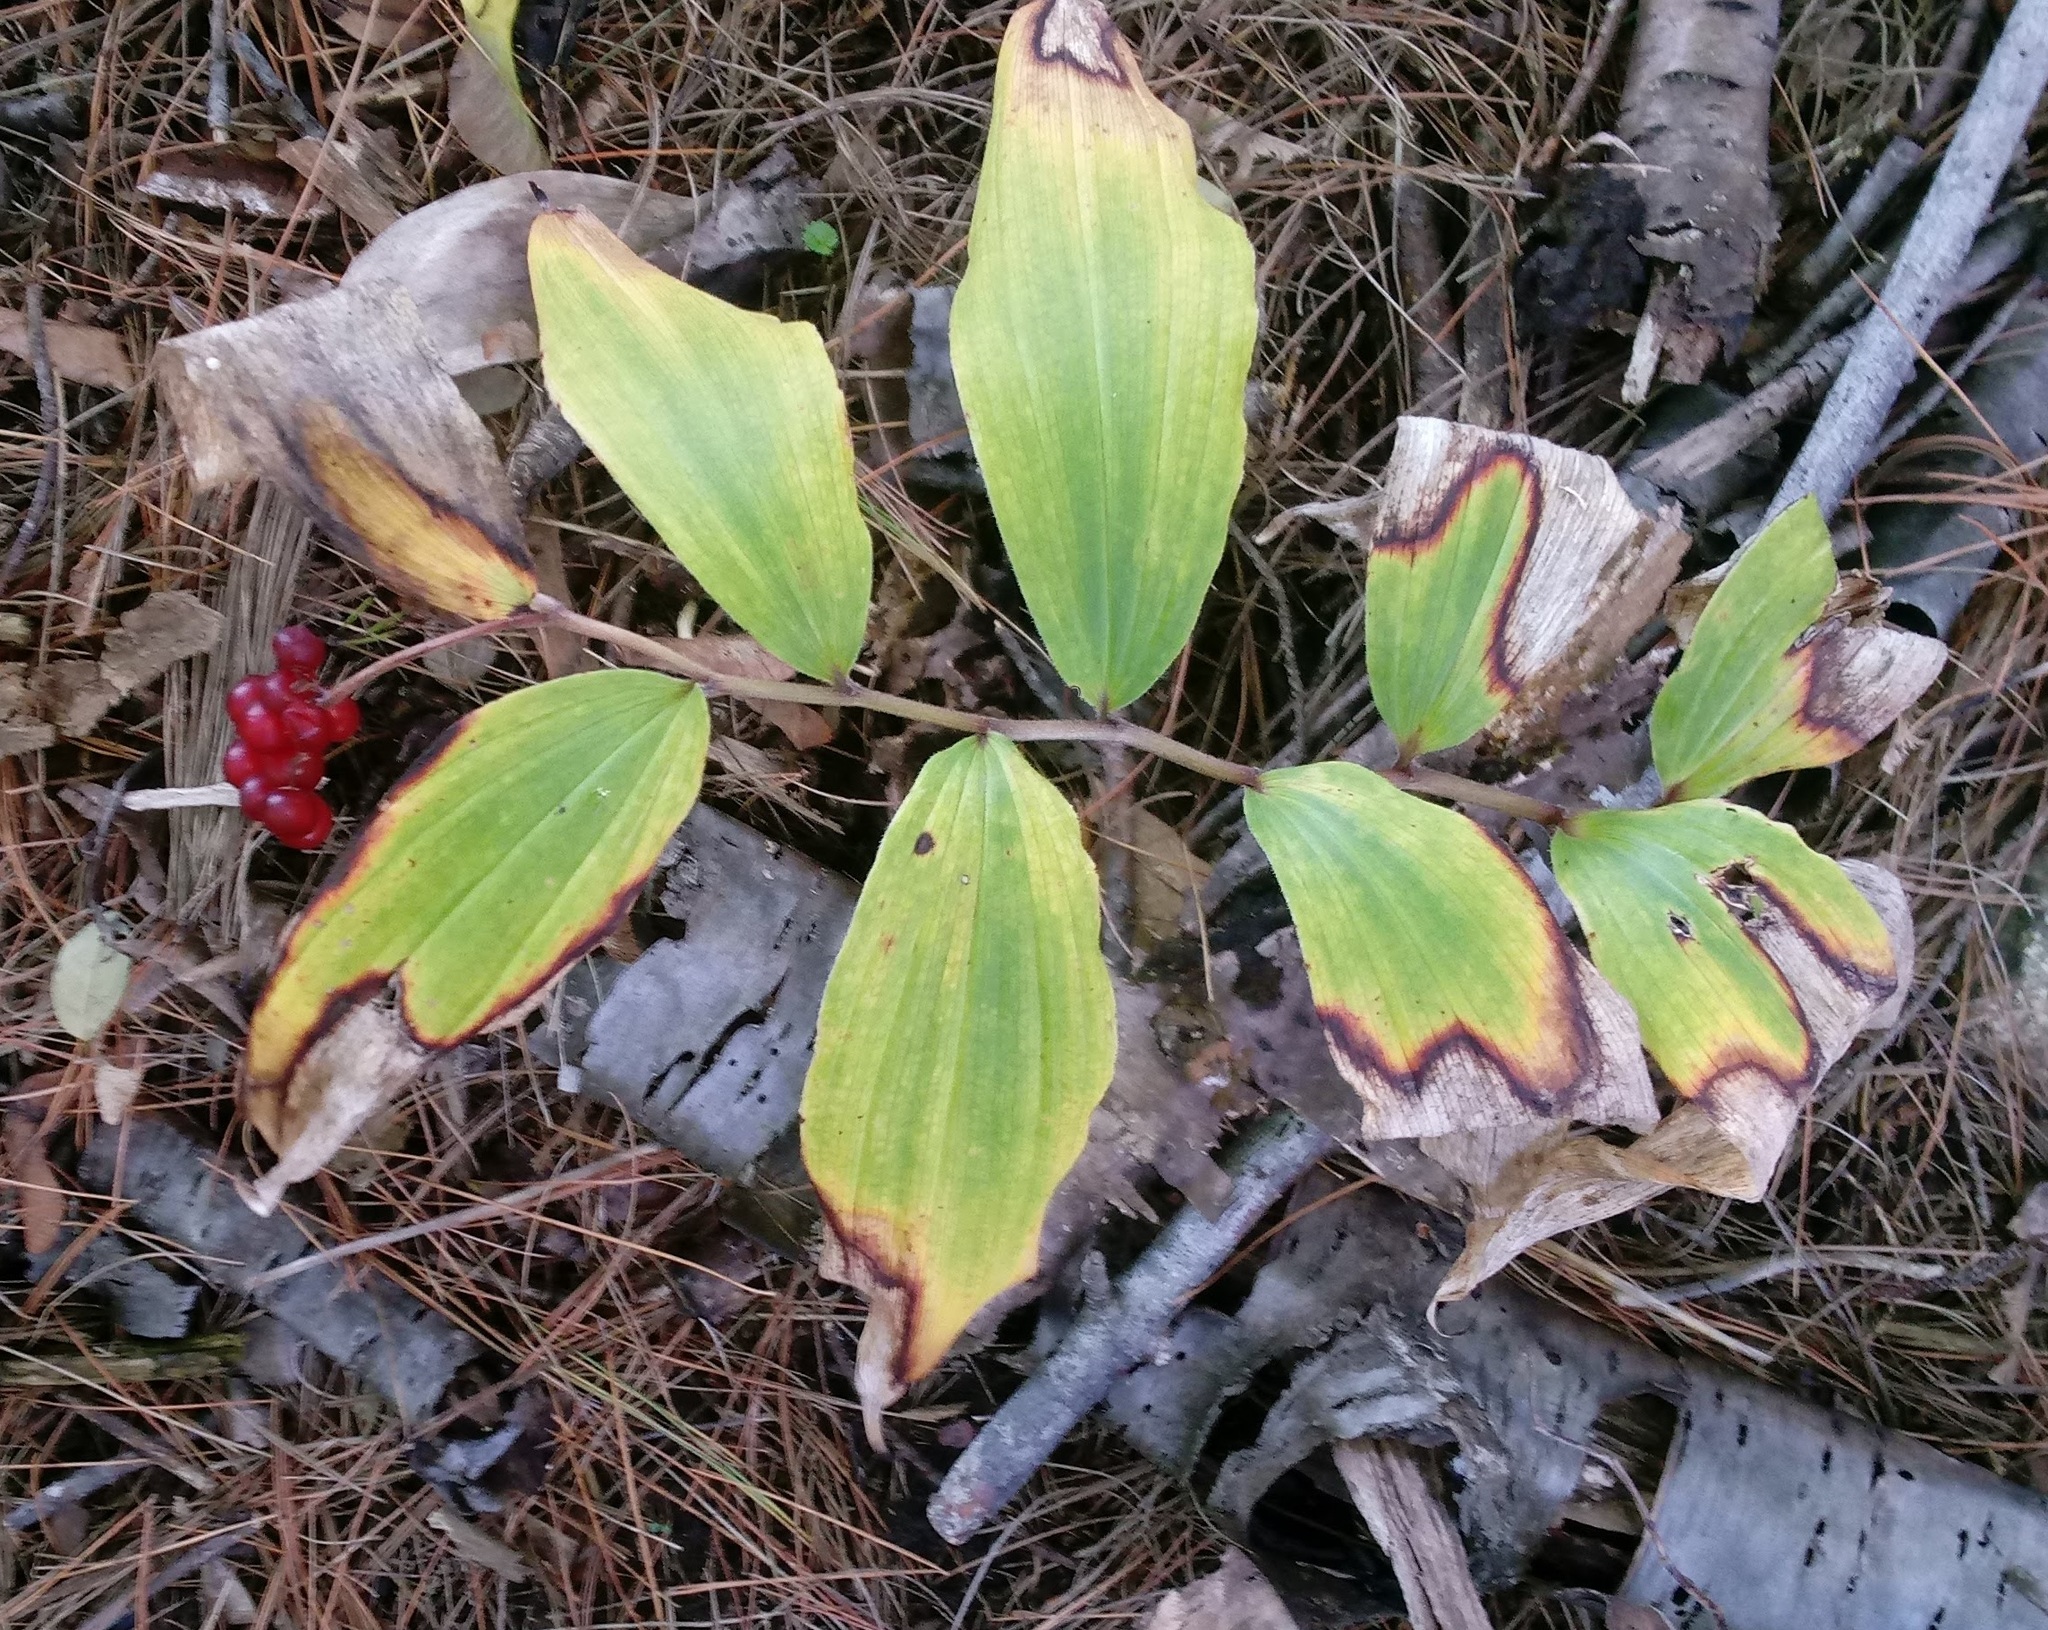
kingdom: Plantae
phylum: Tracheophyta
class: Liliopsida
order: Asparagales
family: Asparagaceae
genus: Maianthemum
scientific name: Maianthemum racemosum
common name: False spikenard
